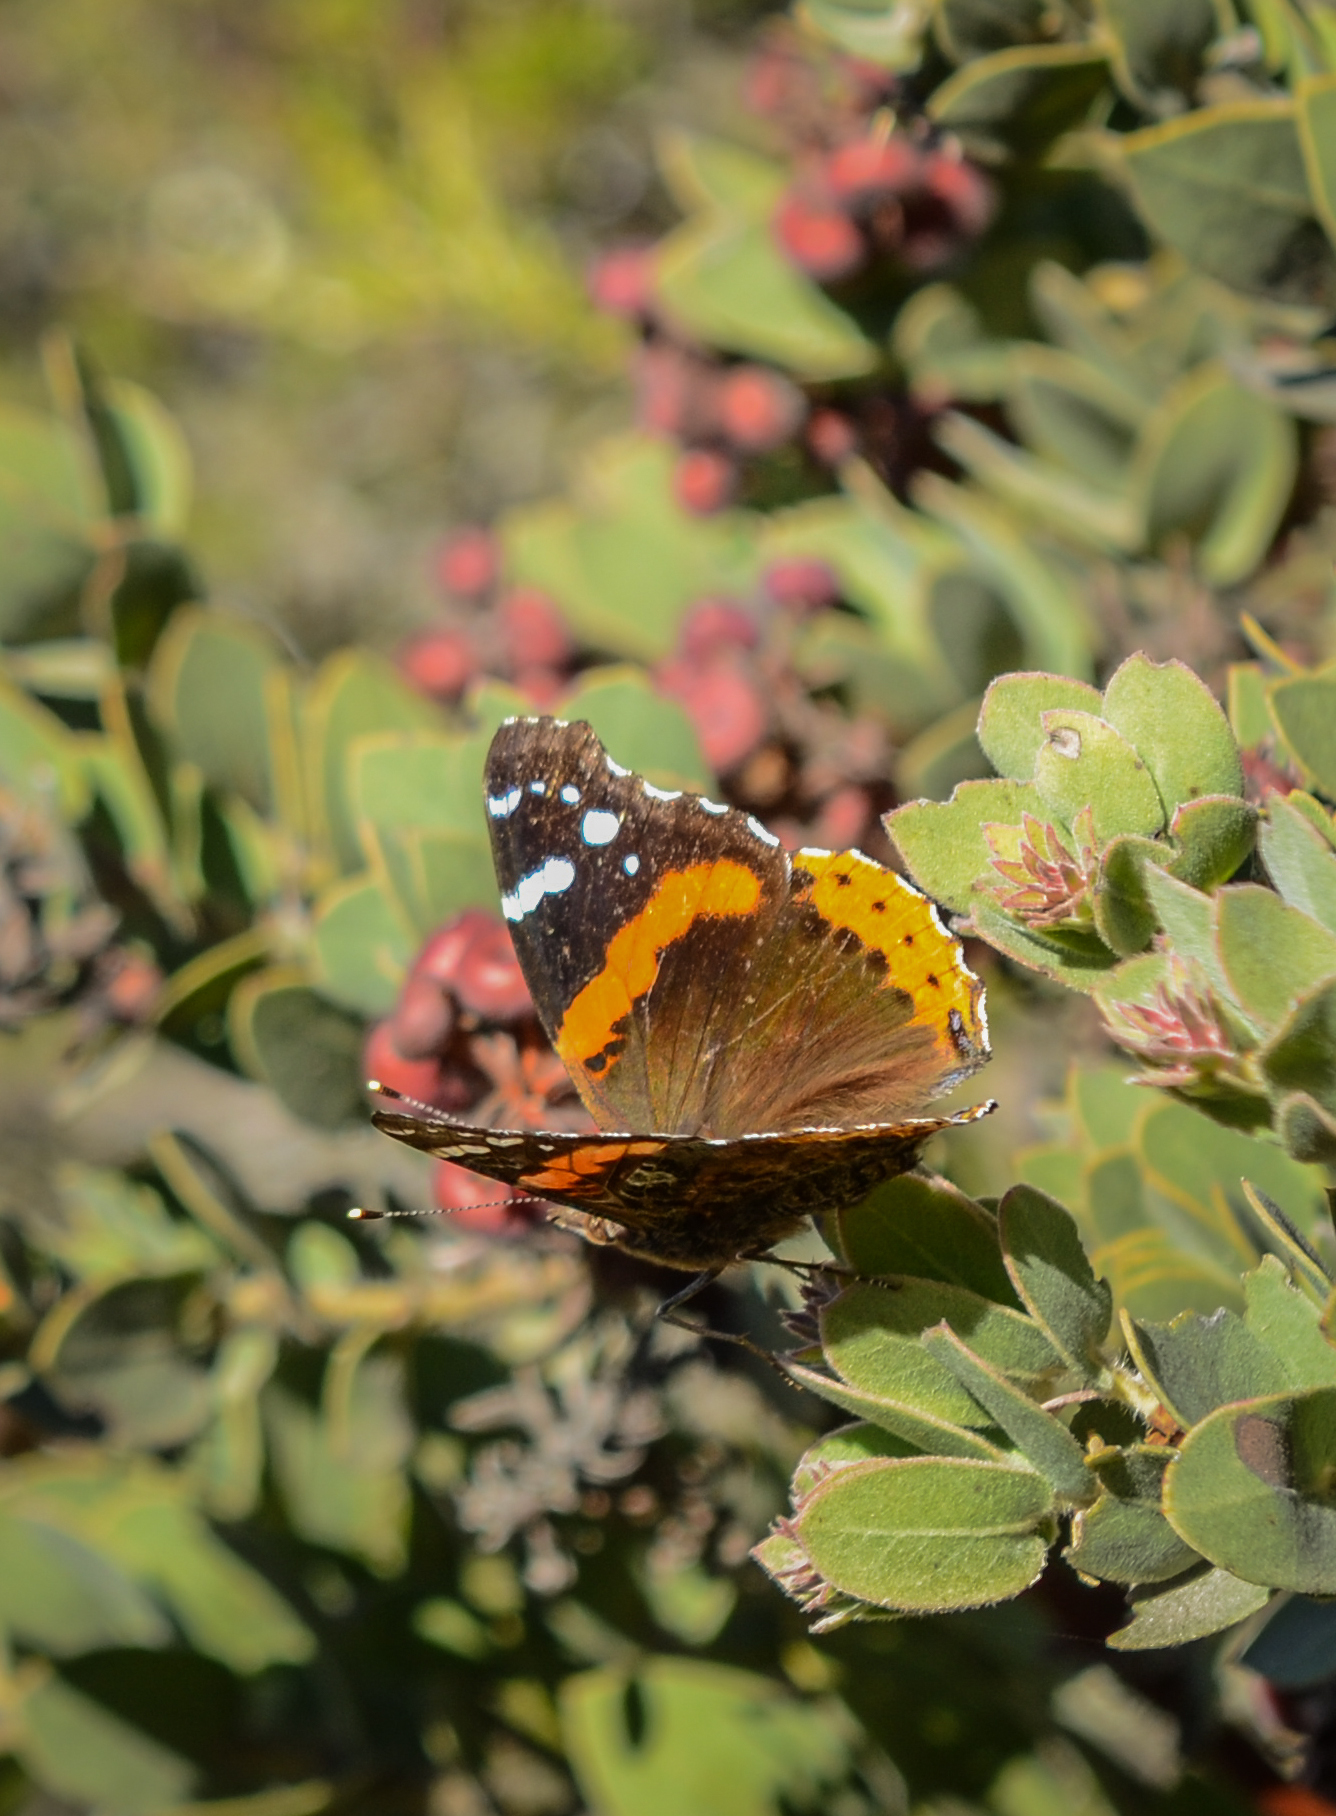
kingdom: Animalia
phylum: Arthropoda
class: Insecta
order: Lepidoptera
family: Nymphalidae
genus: Vanessa
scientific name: Vanessa atalanta
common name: Red admiral
